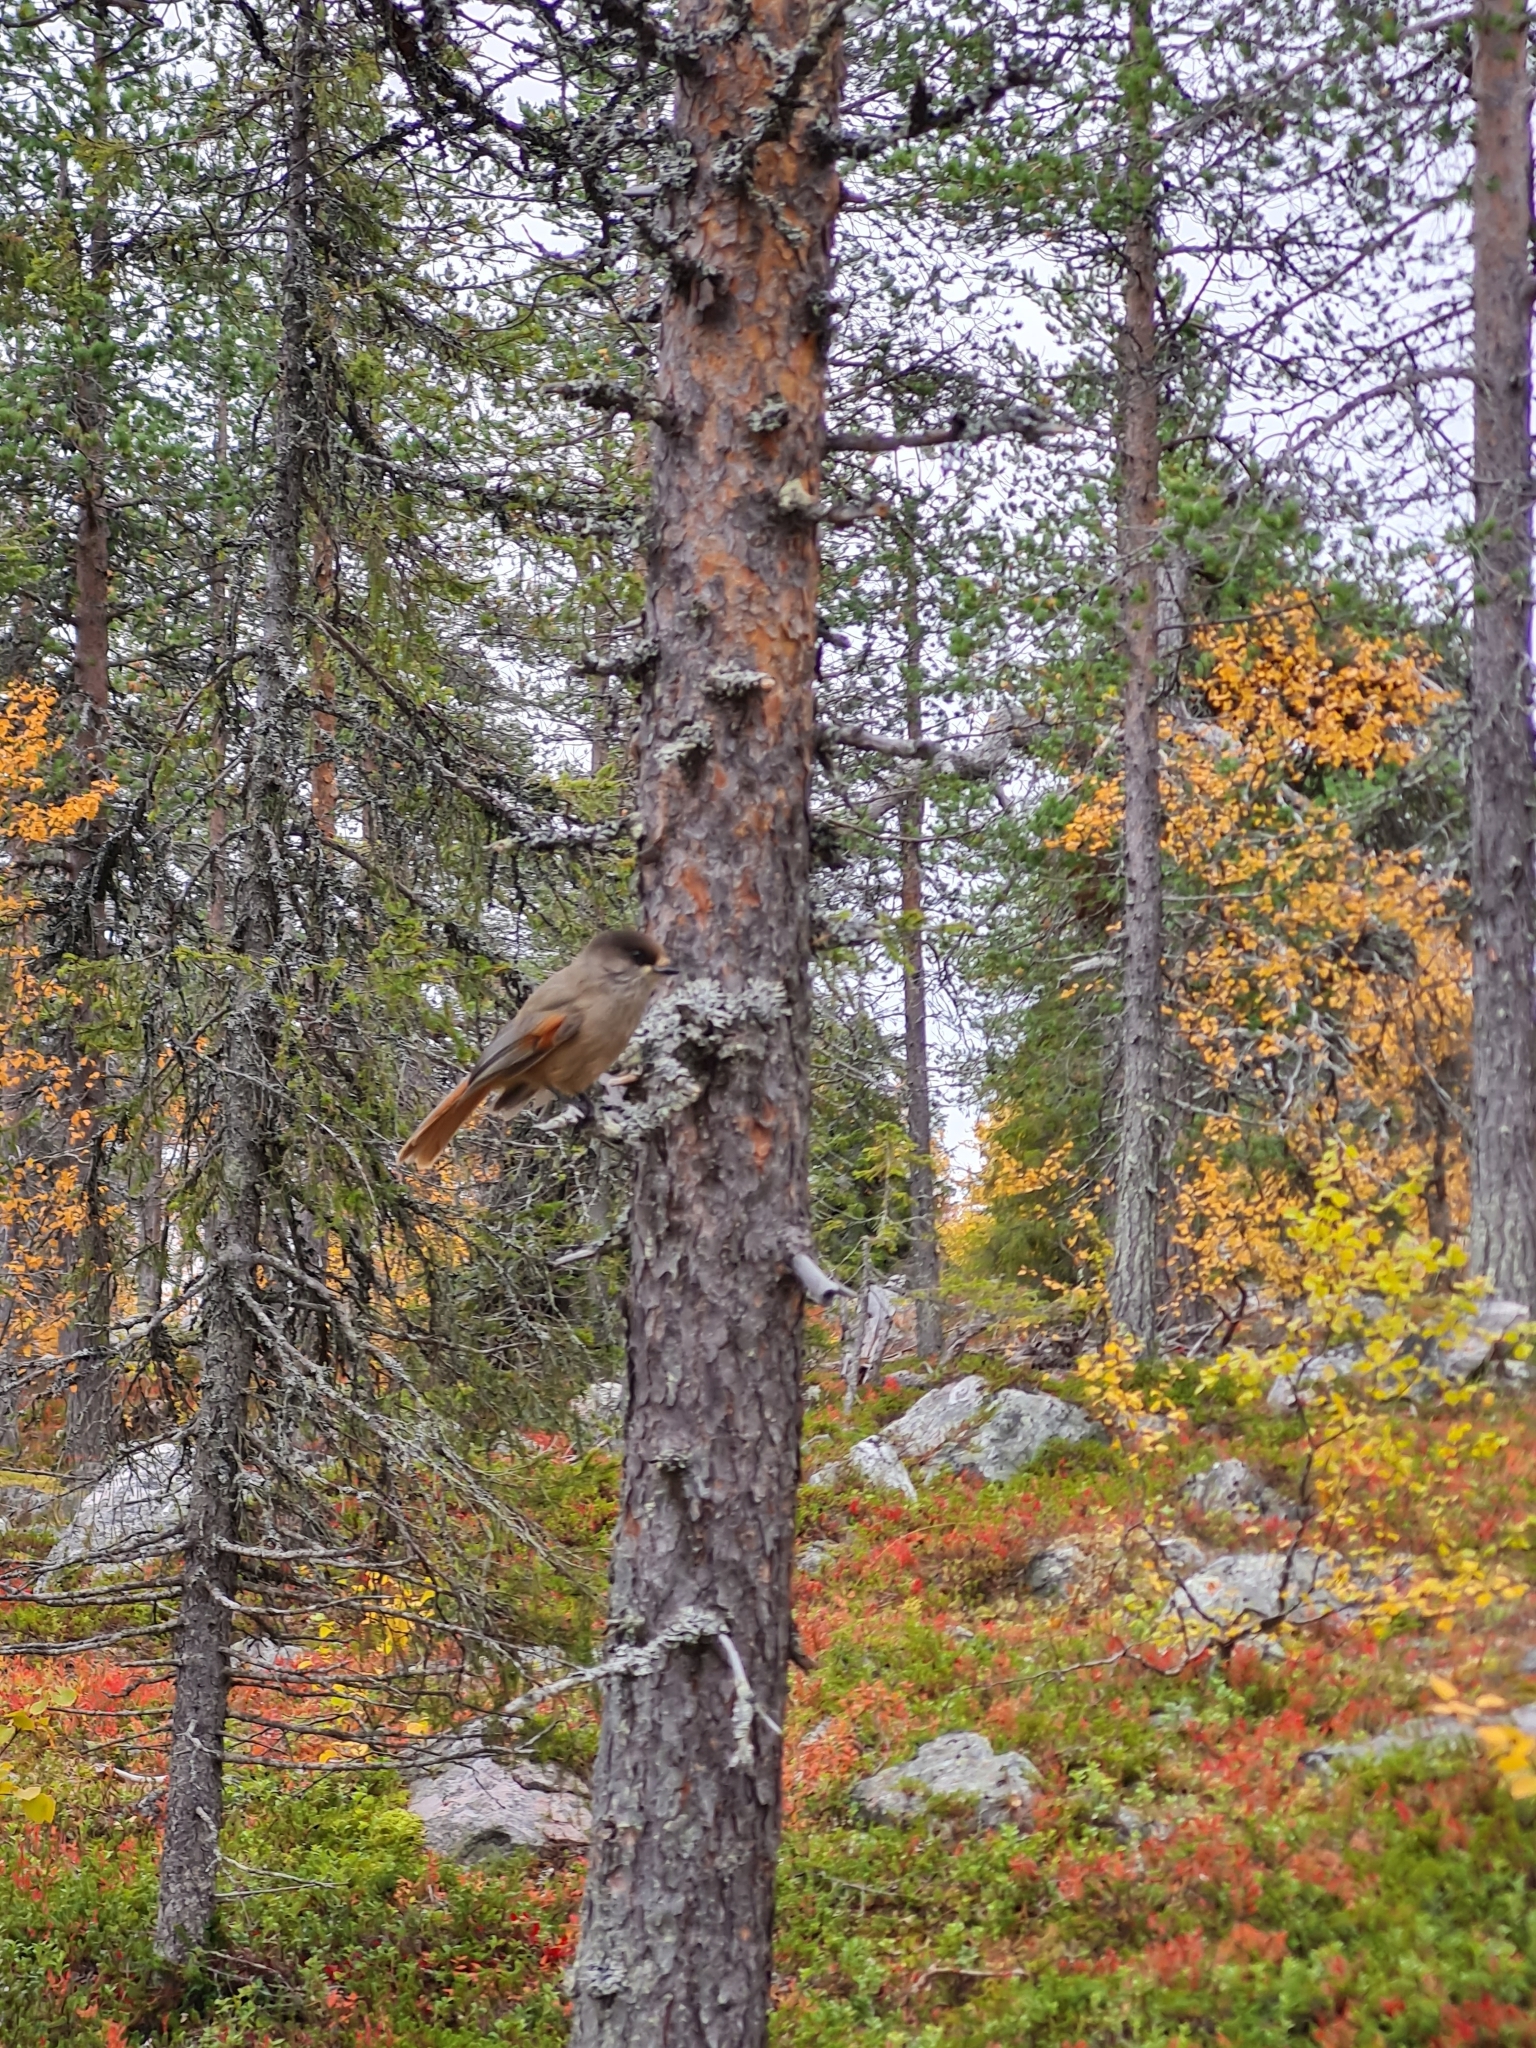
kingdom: Animalia
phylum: Chordata
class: Aves
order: Passeriformes
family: Corvidae
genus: Perisoreus
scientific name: Perisoreus infaustus
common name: Siberian jay
